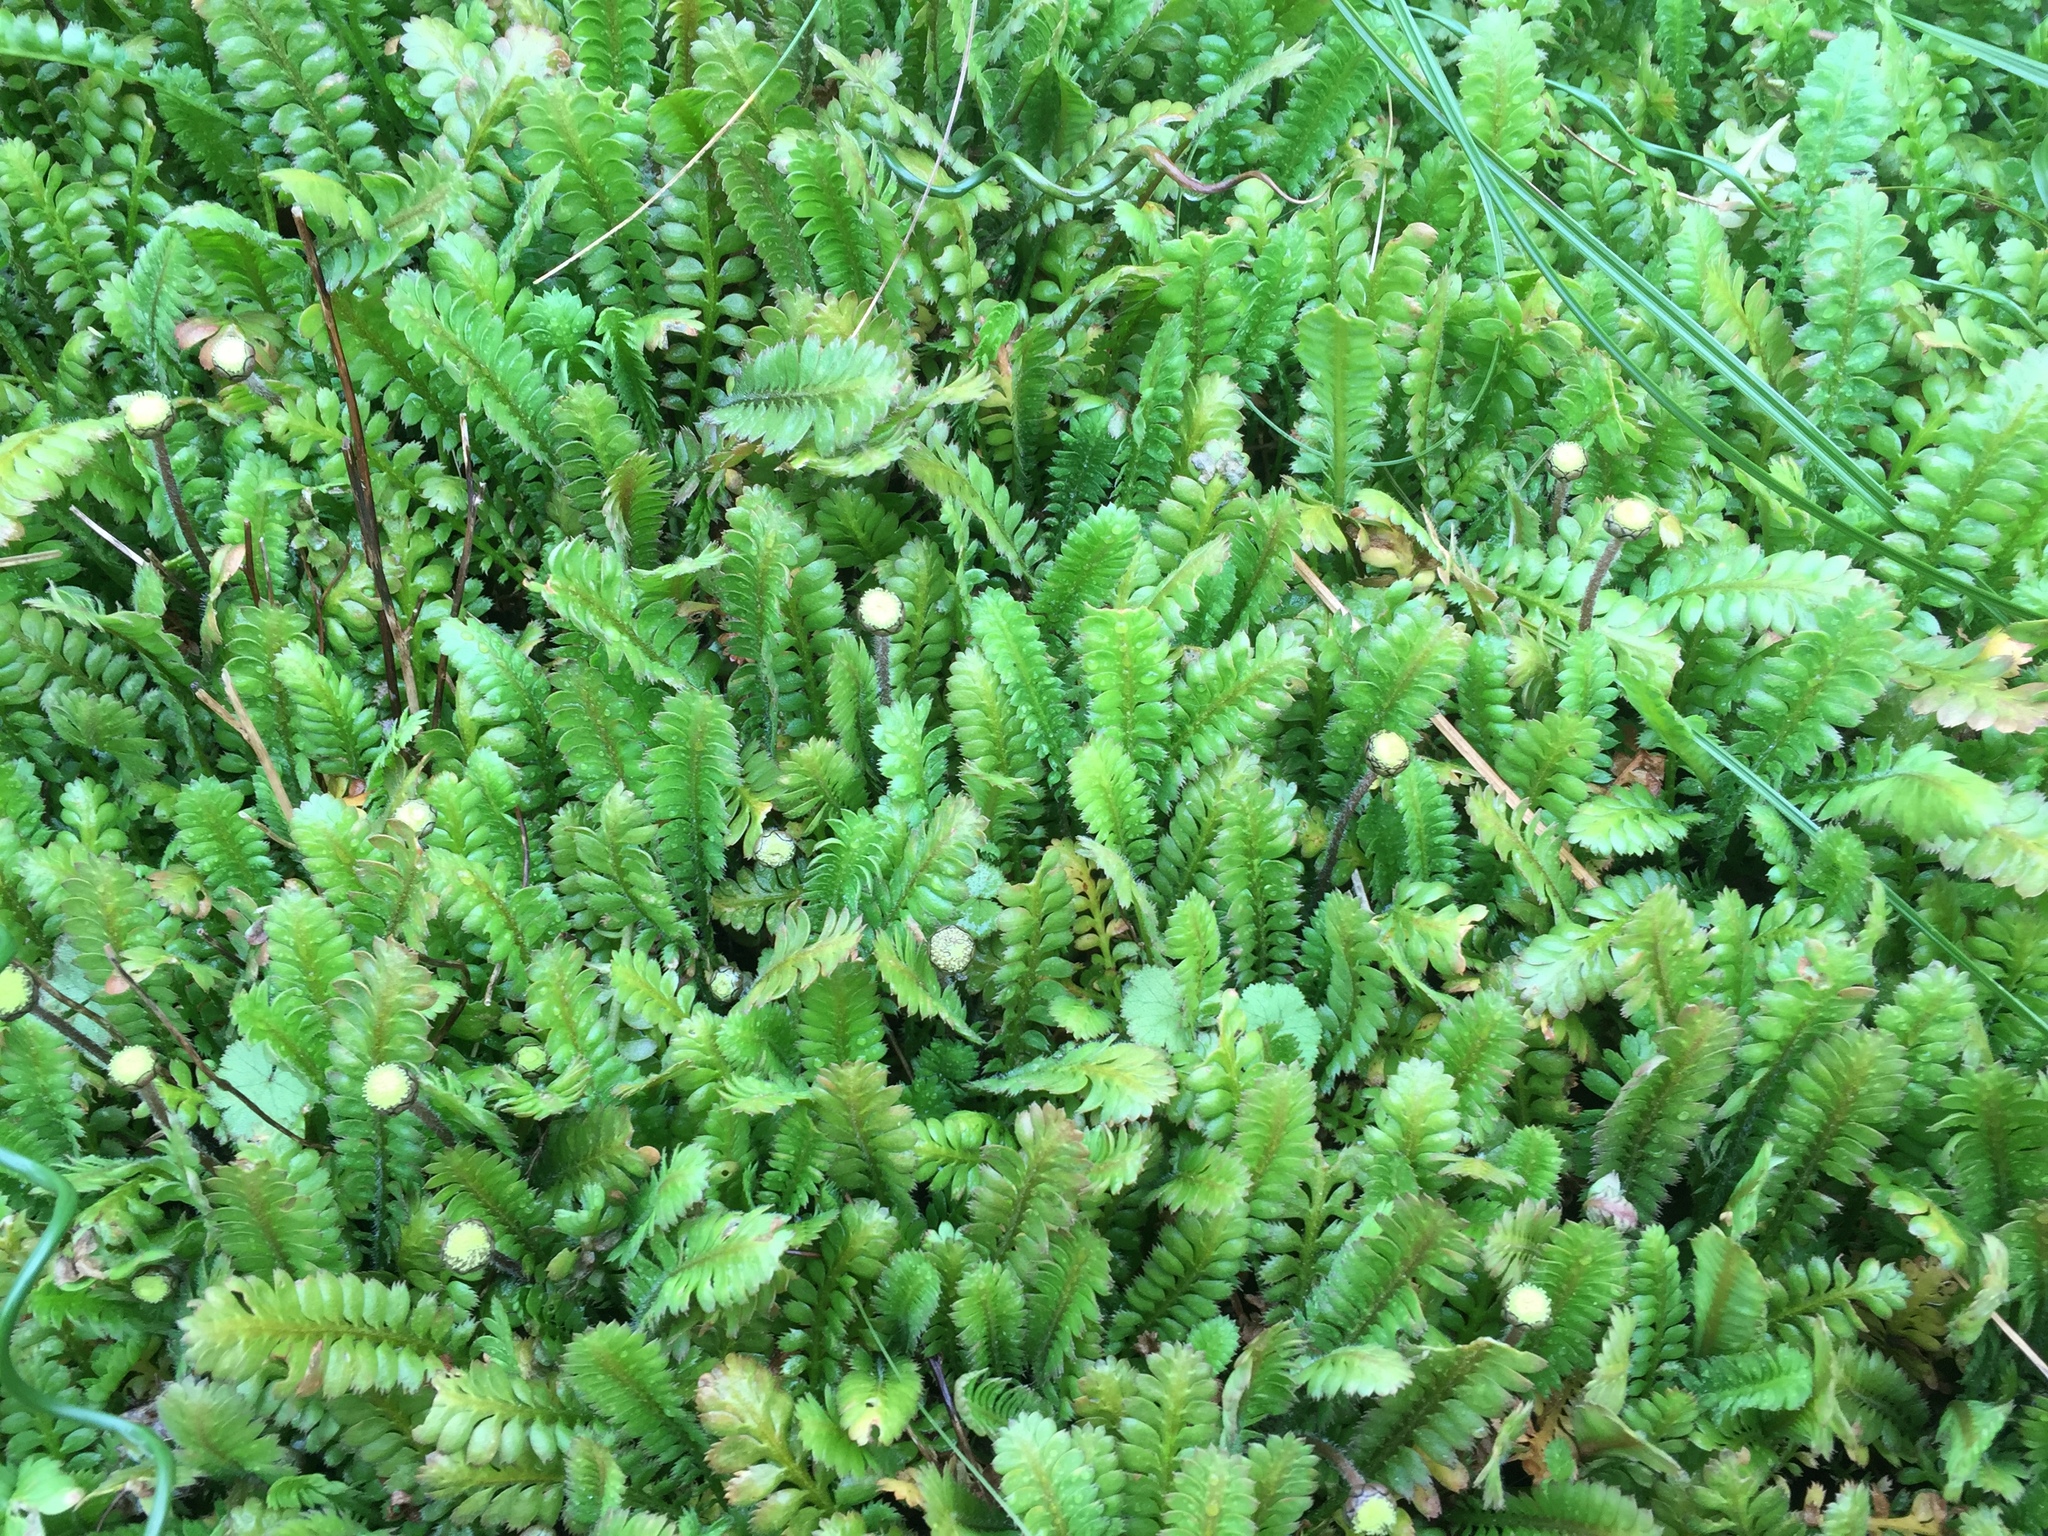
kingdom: Plantae
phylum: Tracheophyta
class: Magnoliopsida
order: Asterales
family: Asteraceae
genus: Leptinella
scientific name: Leptinella dioica
